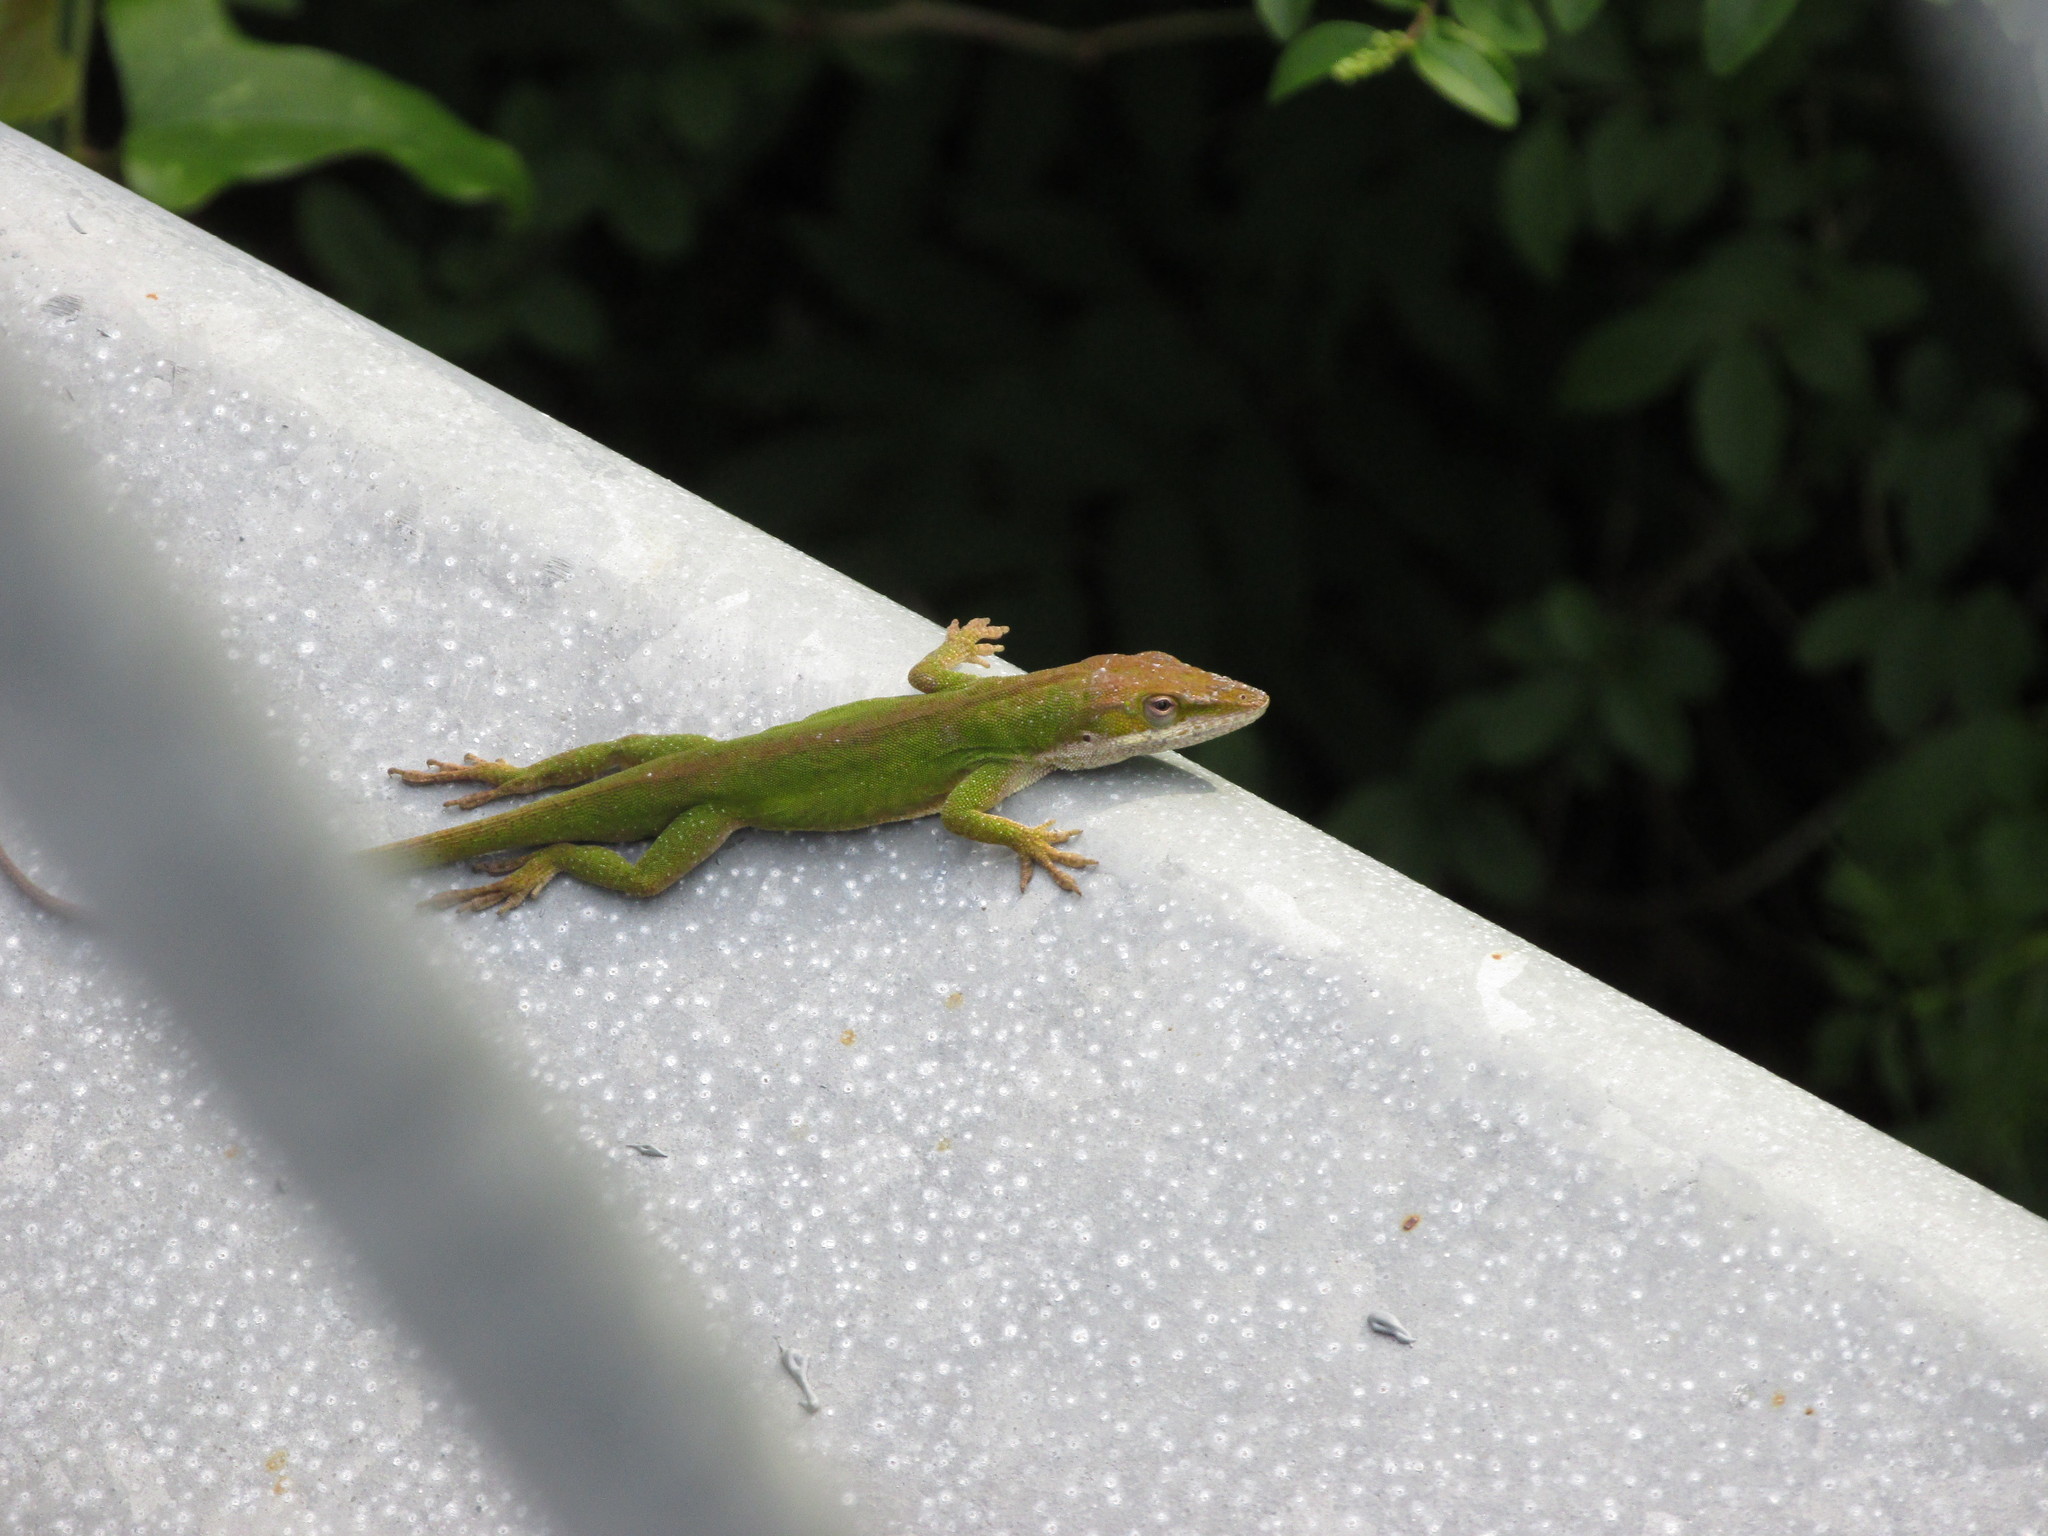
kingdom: Animalia
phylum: Chordata
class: Squamata
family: Dactyloidae
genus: Anolis
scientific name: Anolis carolinensis
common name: Green anole
